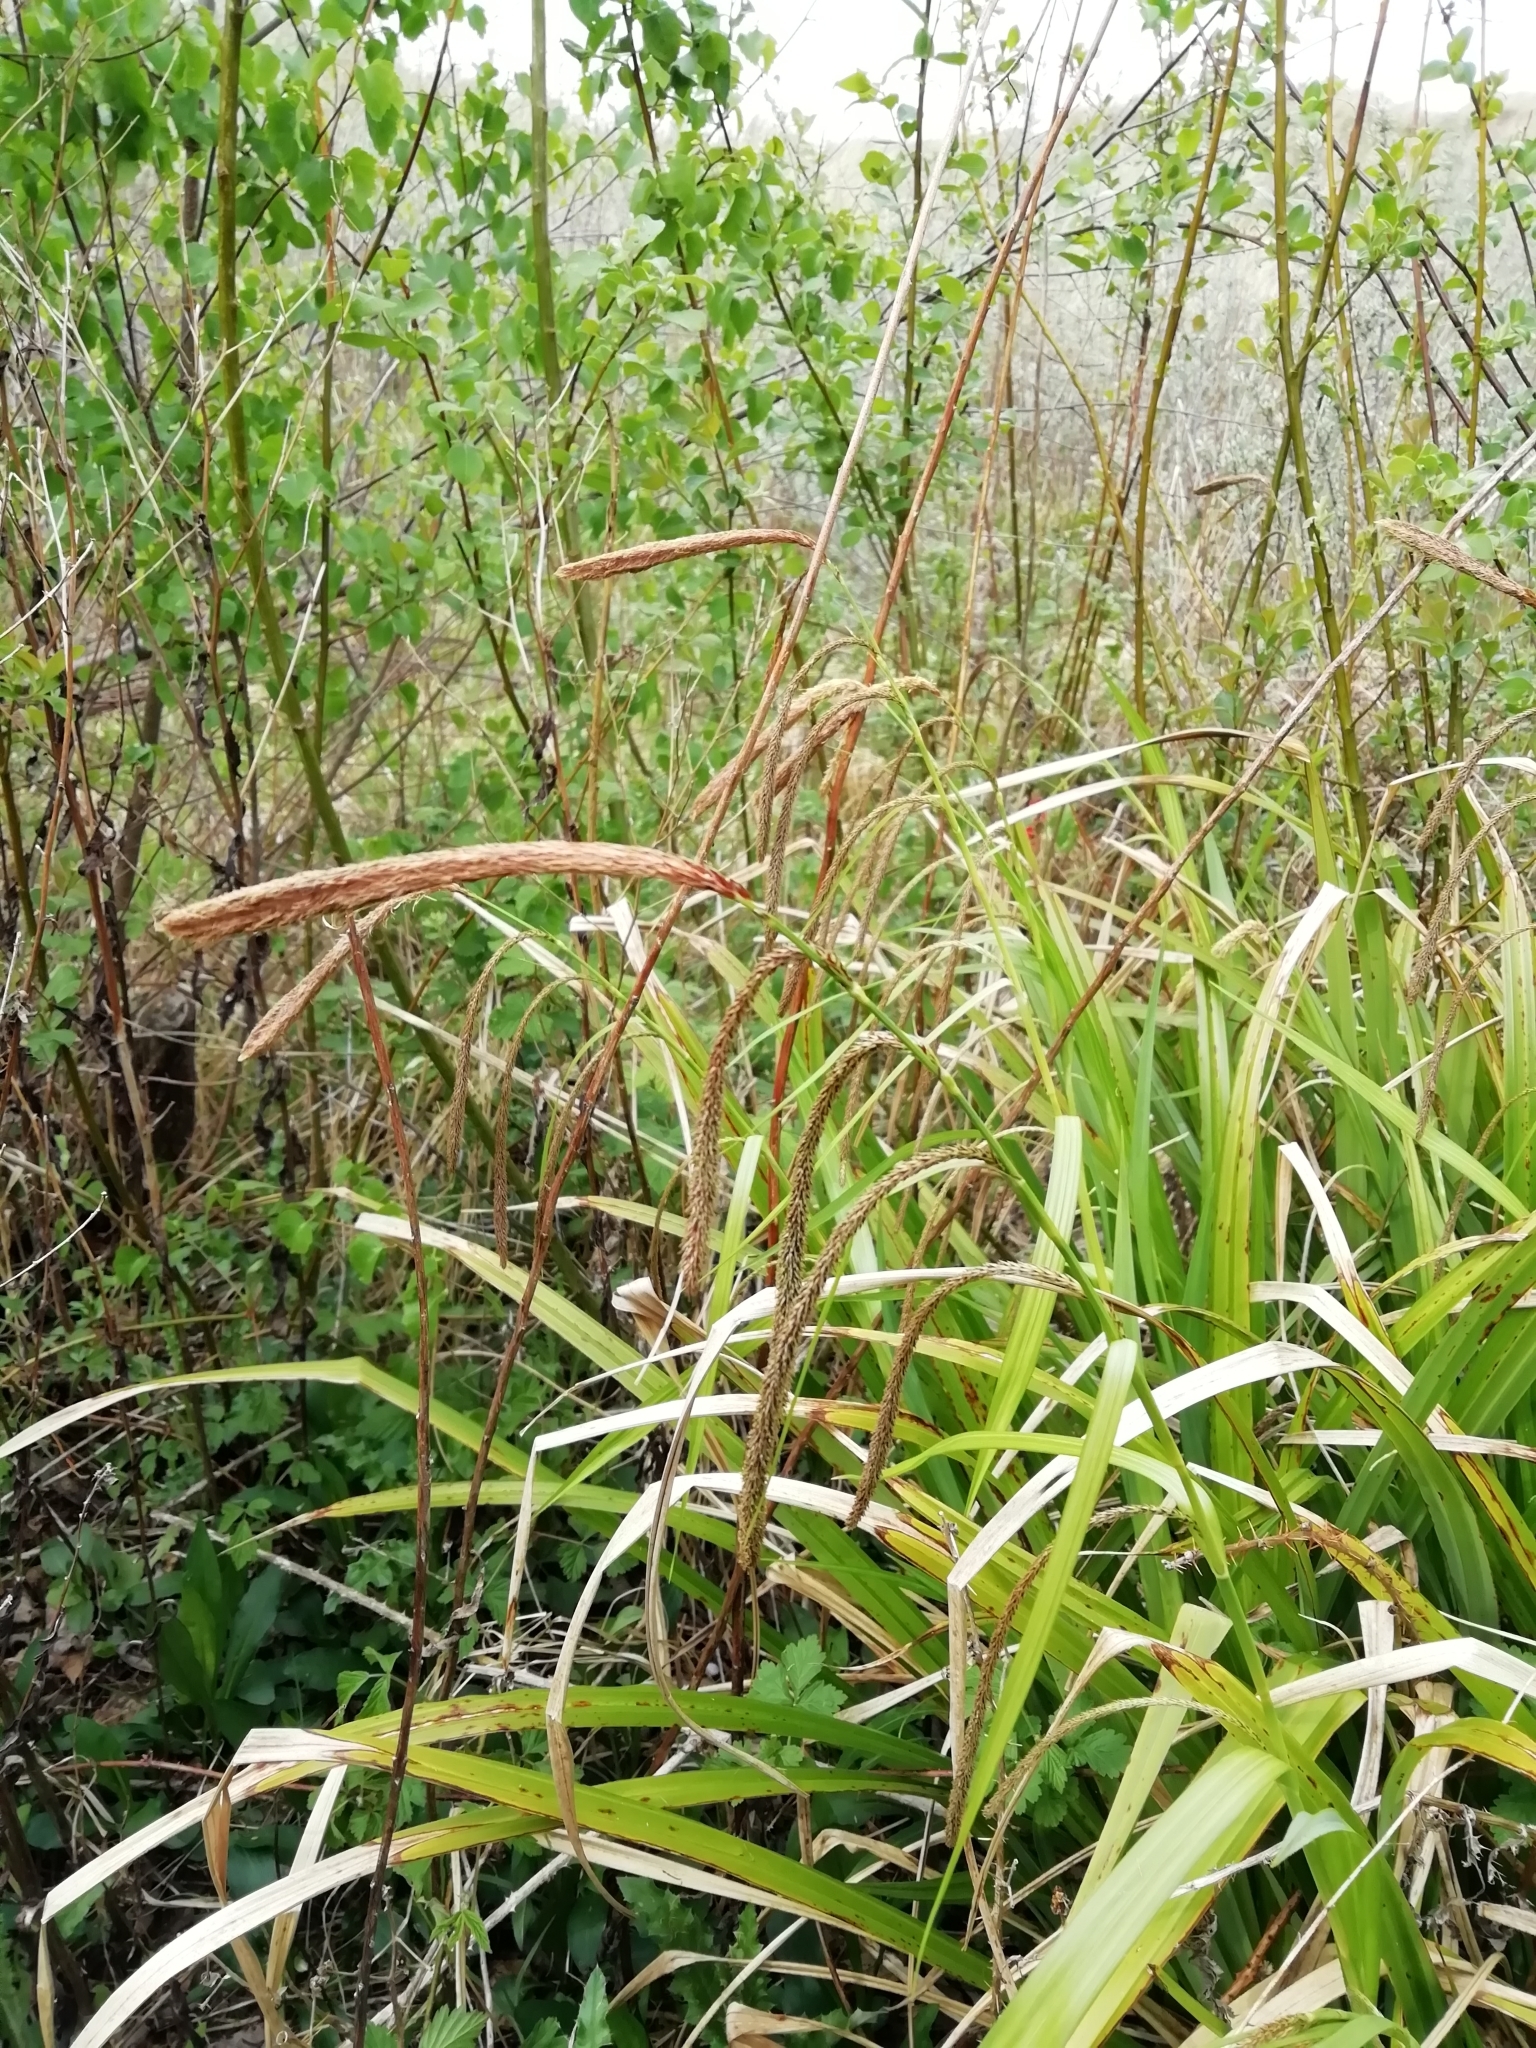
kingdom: Plantae
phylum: Tracheophyta
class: Liliopsida
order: Poales
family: Cyperaceae
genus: Carex
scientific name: Carex pendula
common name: Pendulous sedge
